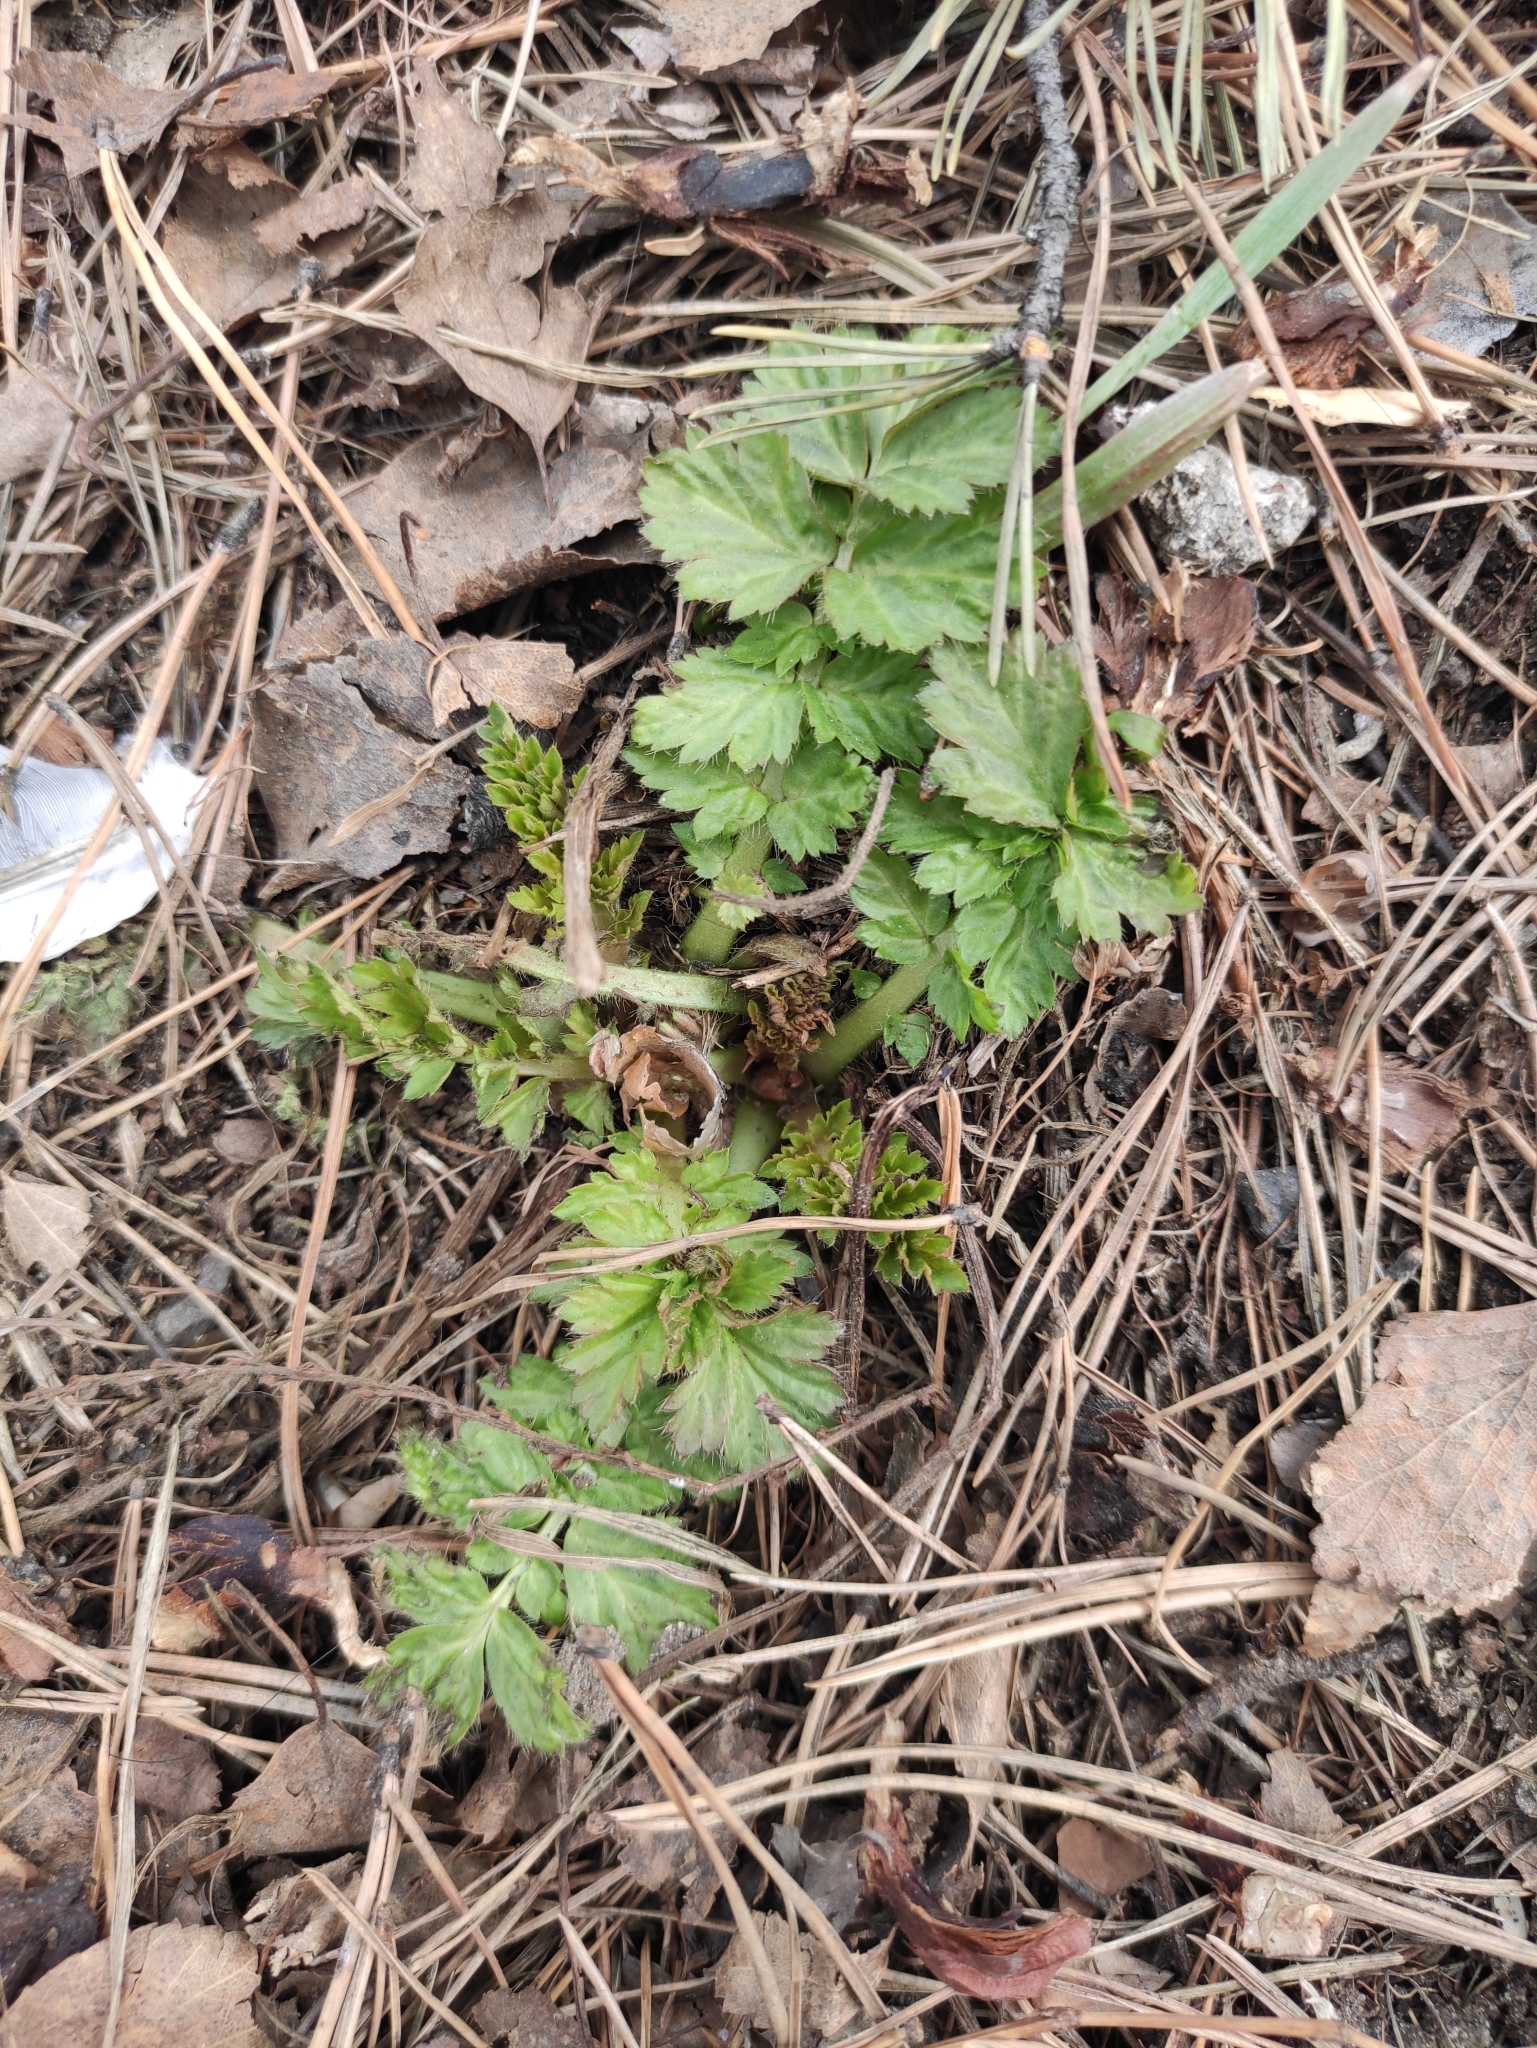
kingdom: Plantae
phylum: Tracheophyta
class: Magnoliopsida
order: Rosales
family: Rosaceae
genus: Geum
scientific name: Geum aleppicum
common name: Yellow avens
